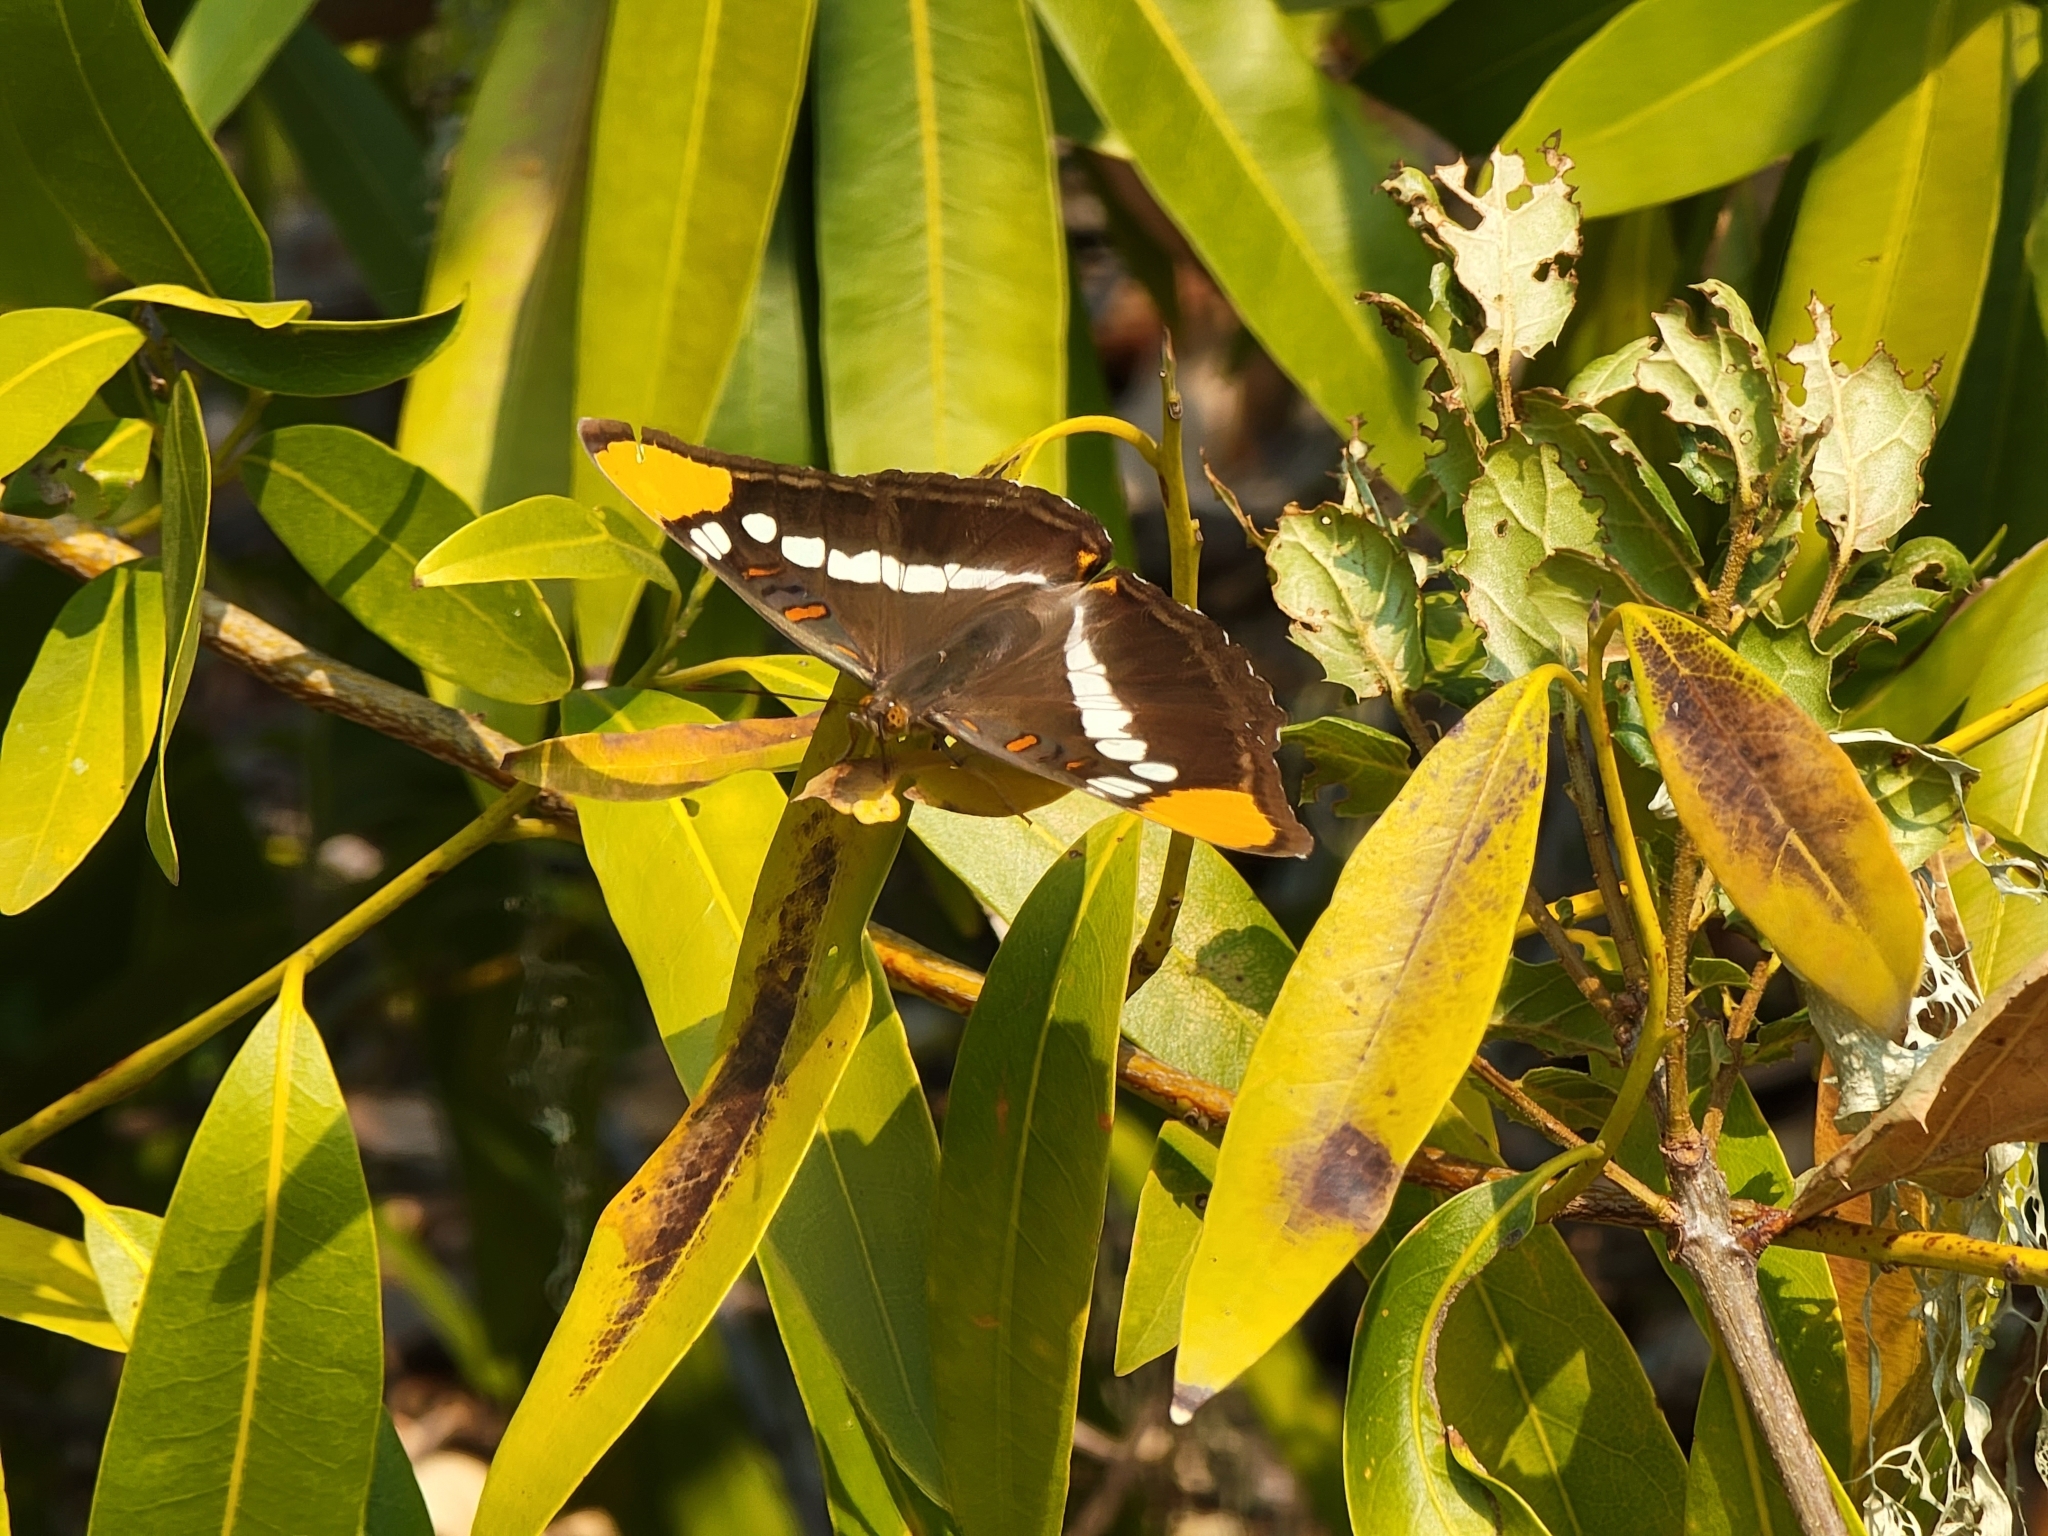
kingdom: Animalia
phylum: Arthropoda
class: Insecta
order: Lepidoptera
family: Nymphalidae
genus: Limenitis
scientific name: Limenitis bredowii
